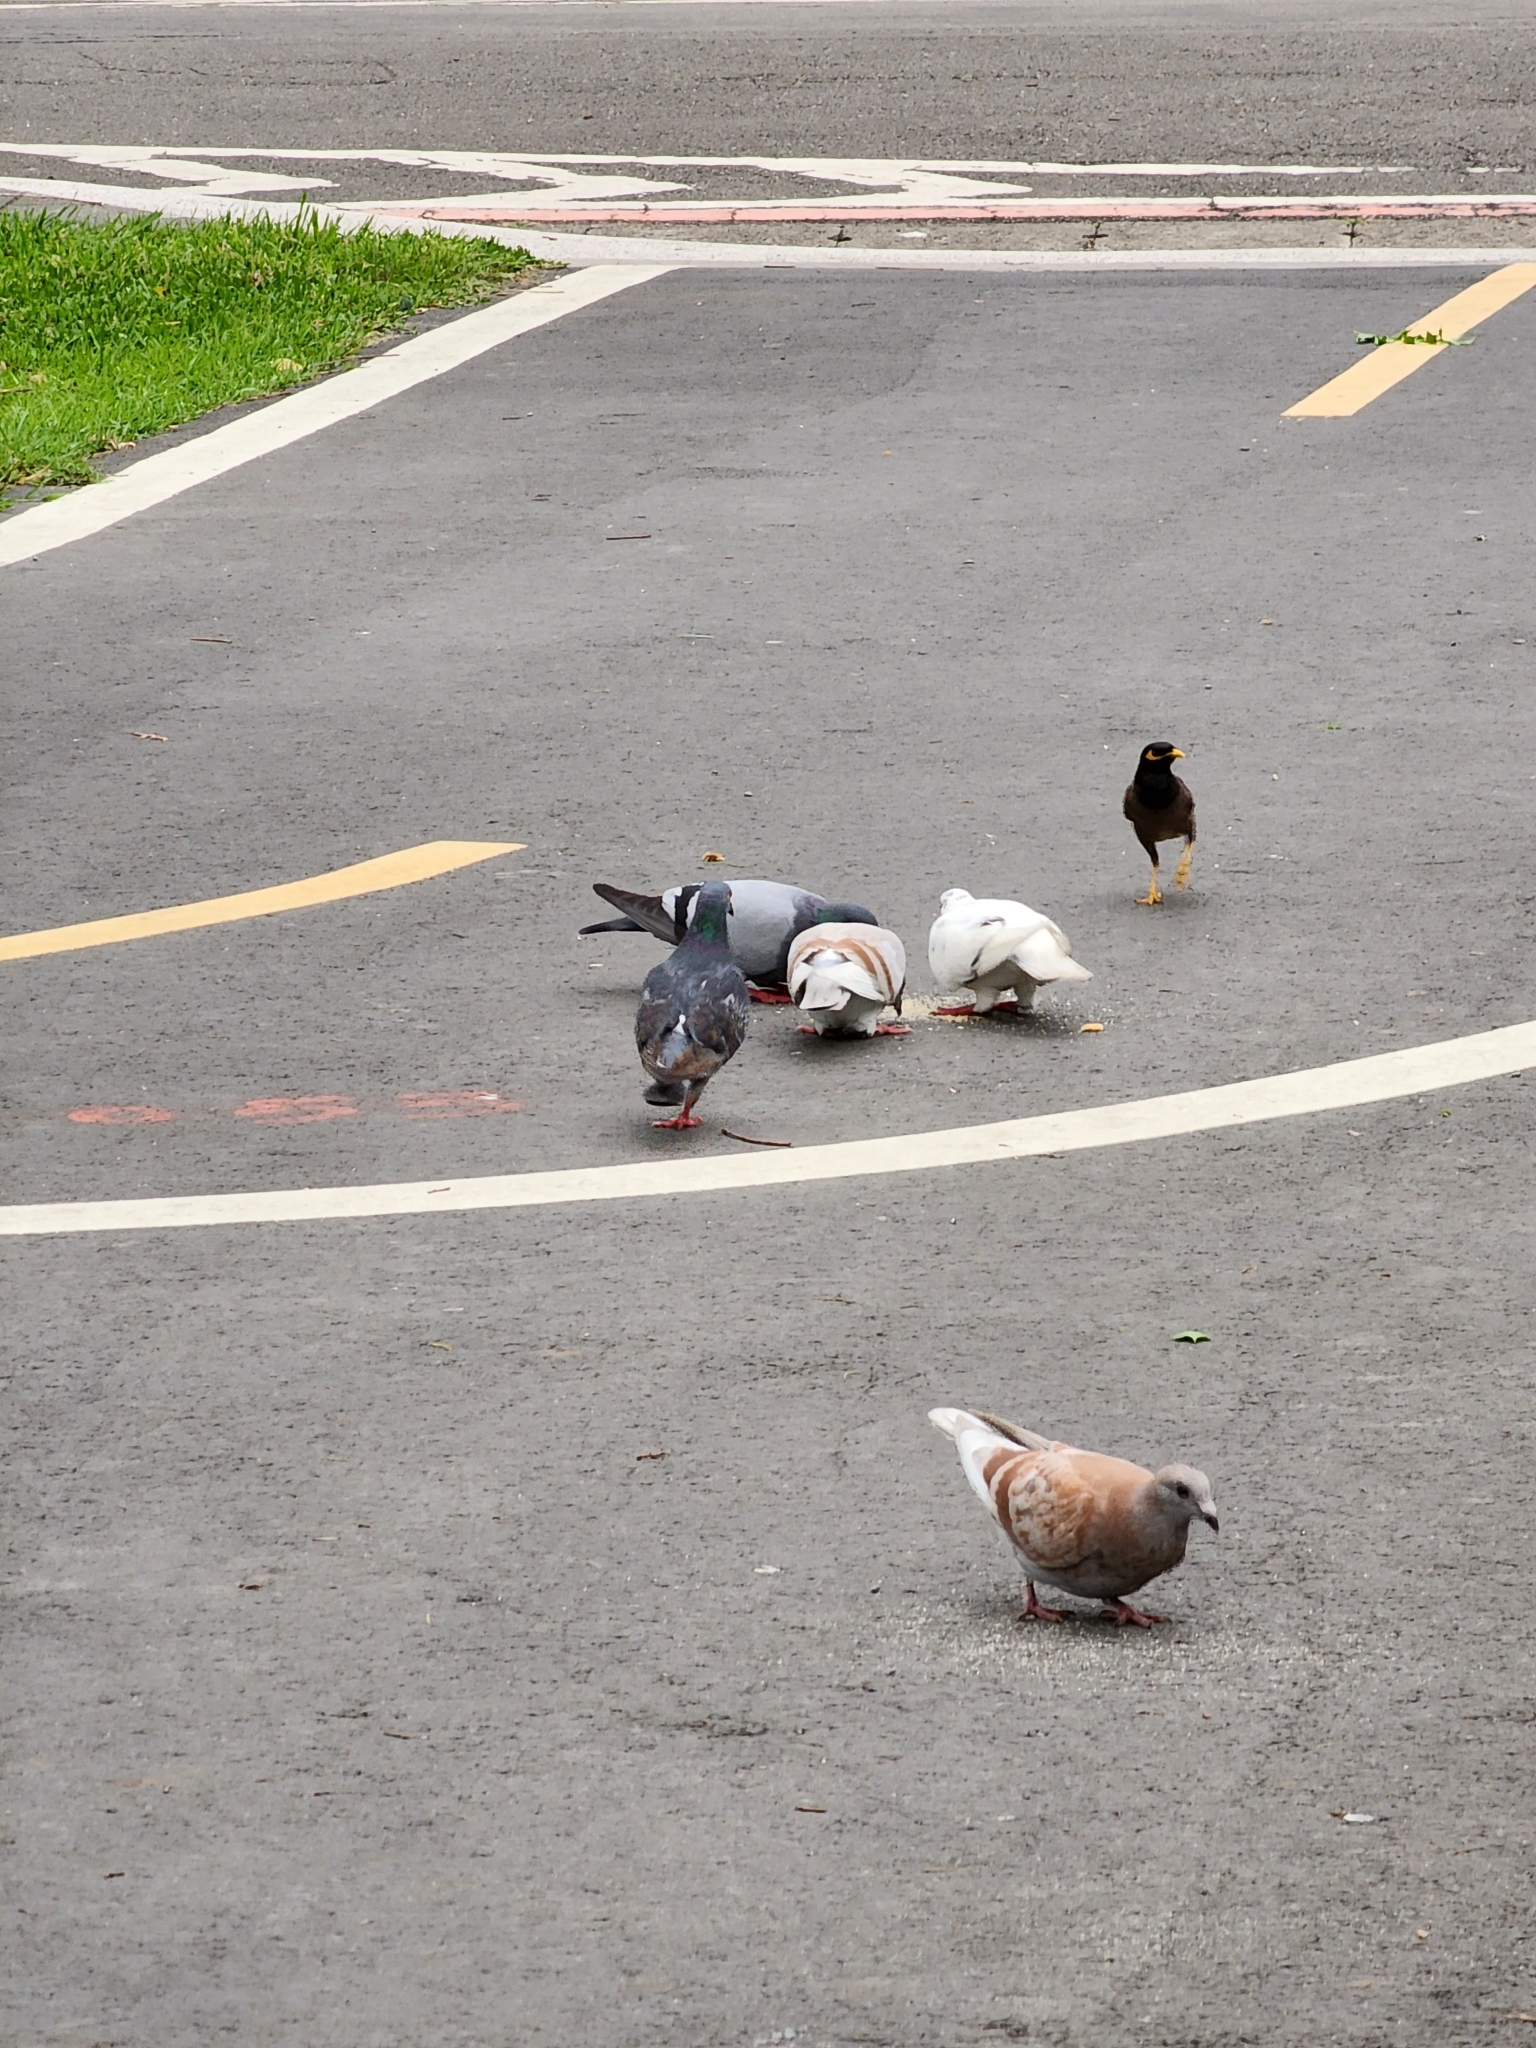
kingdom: Animalia
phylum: Chordata
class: Aves
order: Columbiformes
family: Columbidae
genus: Columba
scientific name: Columba livia
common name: Rock pigeon
